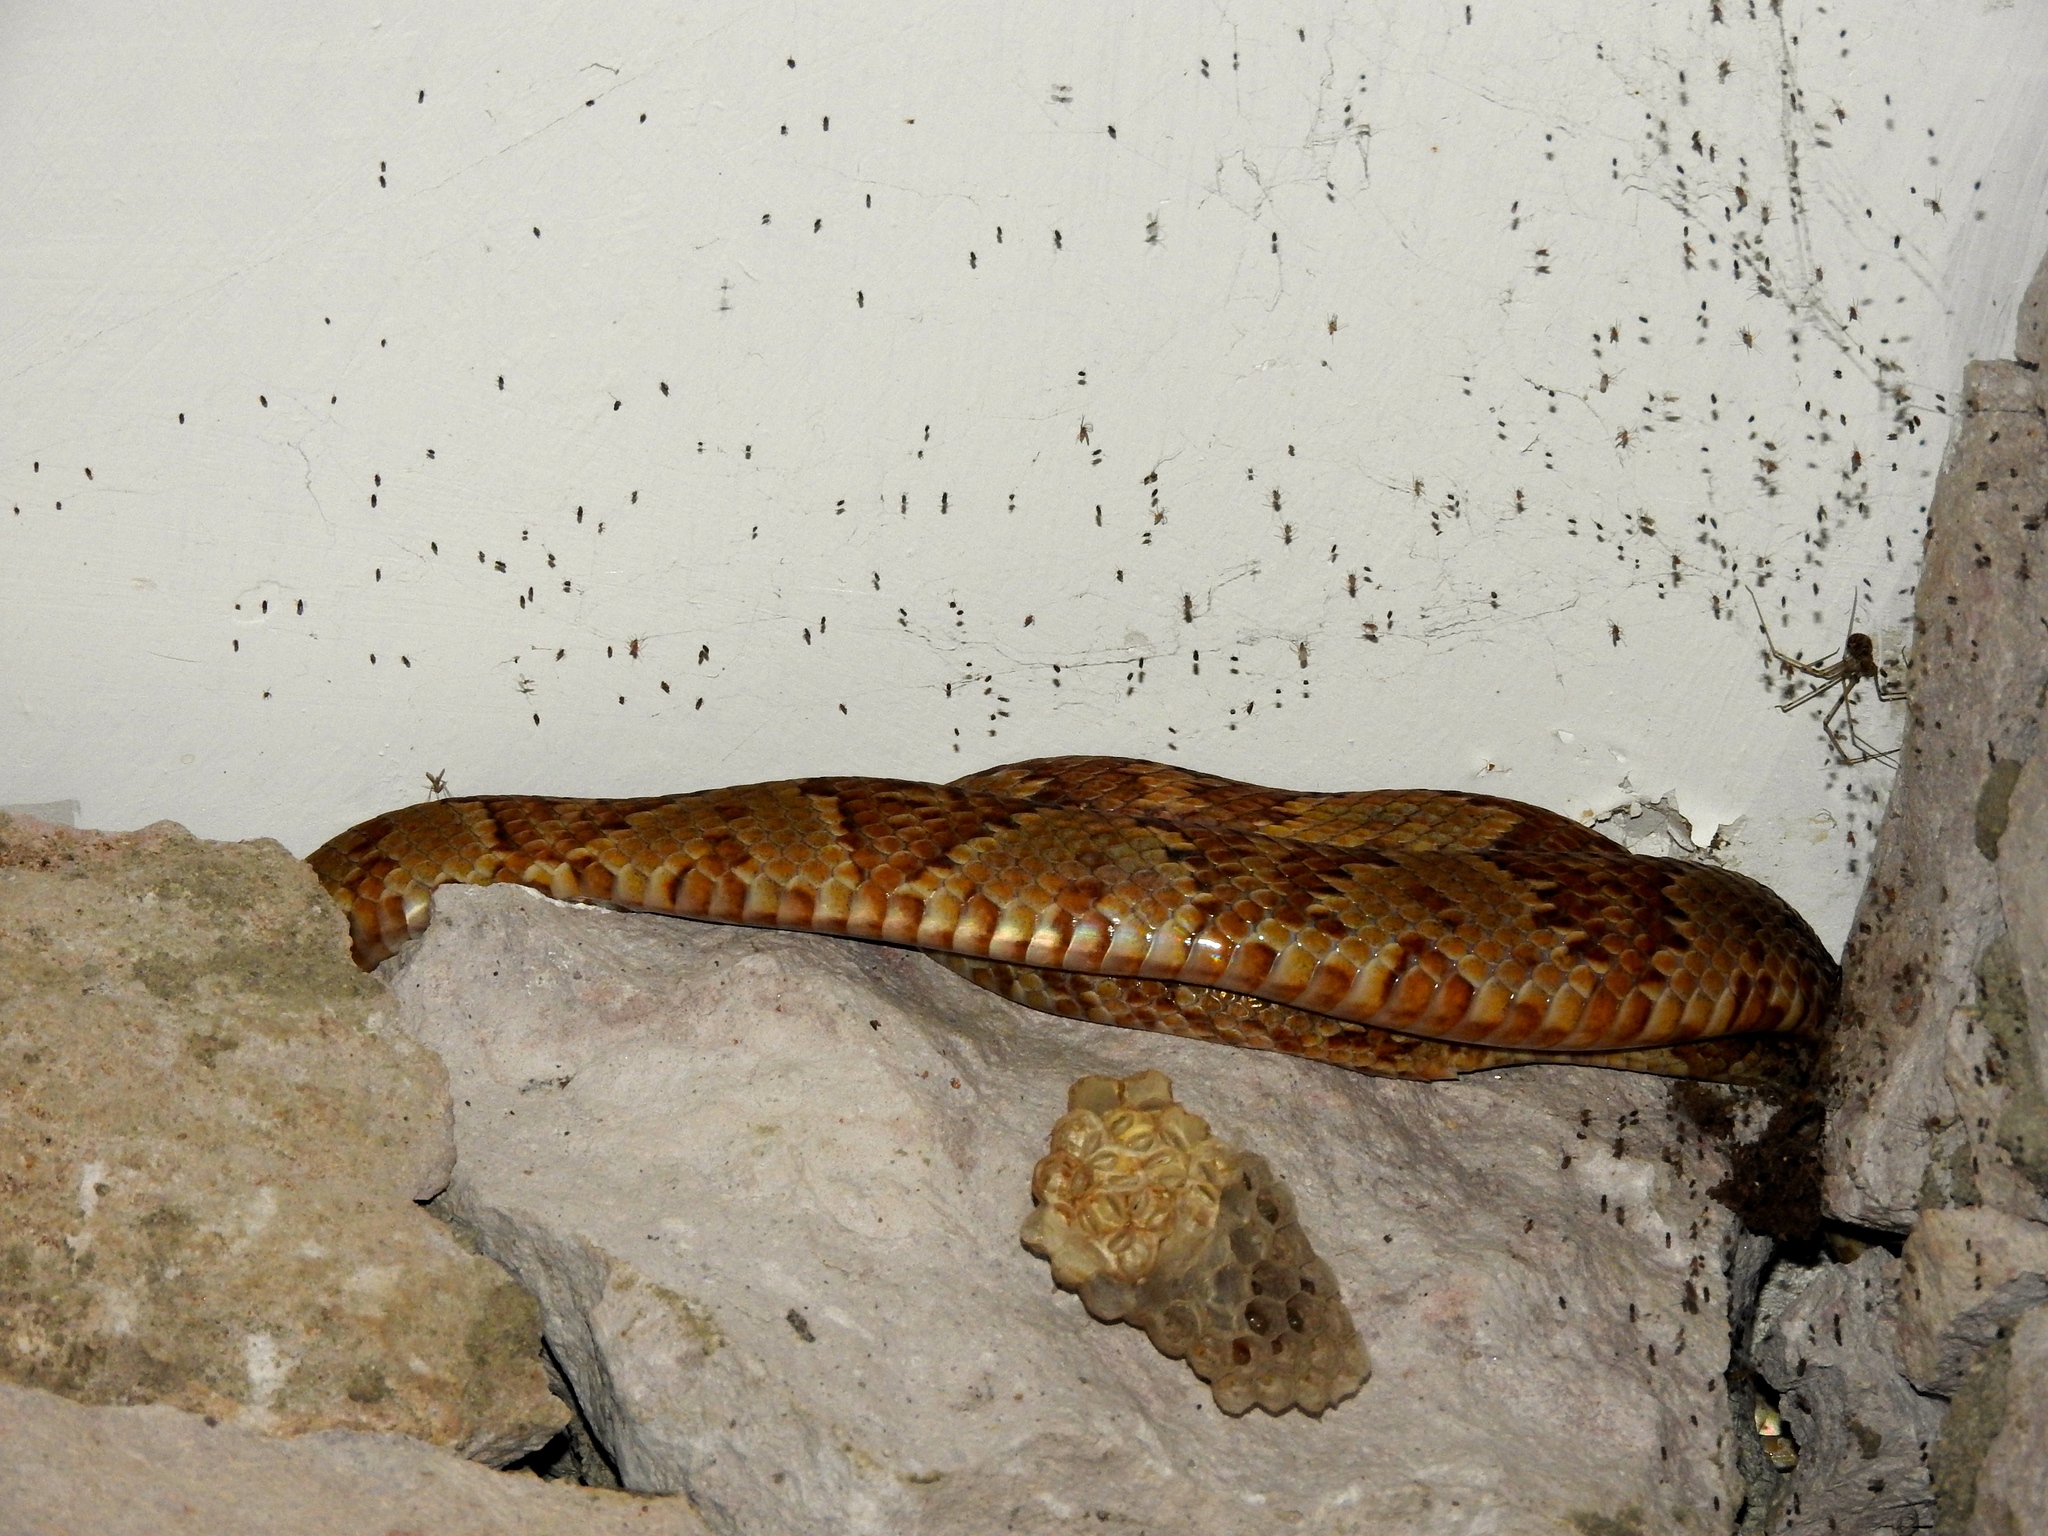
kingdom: Animalia
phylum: Chordata
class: Squamata
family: Colubridae
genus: Trimorphodon
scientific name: Trimorphodon paucimaculatus
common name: Sinaloan lyresnake
